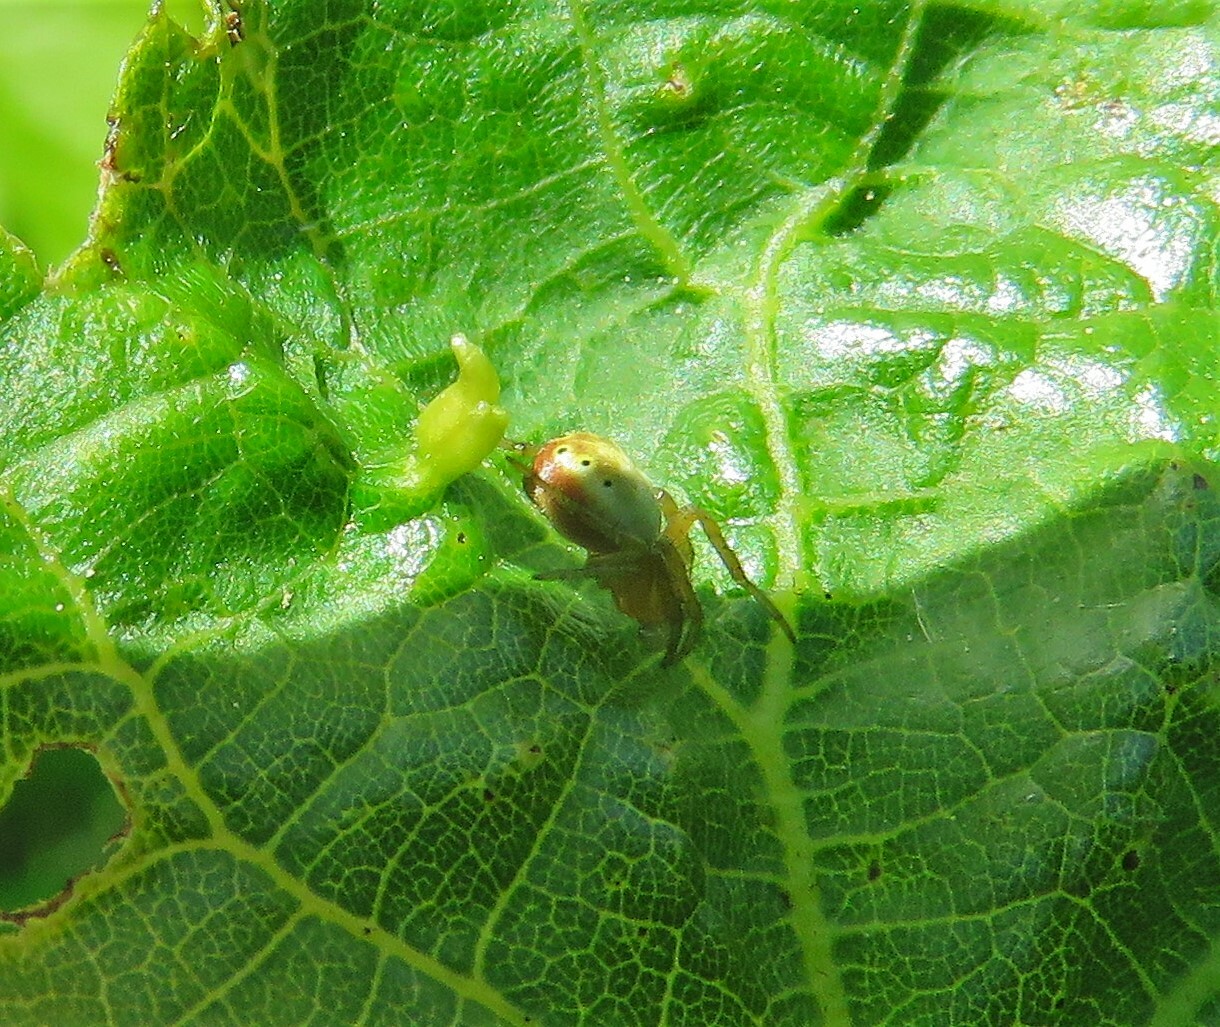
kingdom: Animalia
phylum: Arthropoda
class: Arachnida
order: Araneae
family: Araneidae
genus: Araniella
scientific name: Araniella displicata
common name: Sixspotted orb weaver
